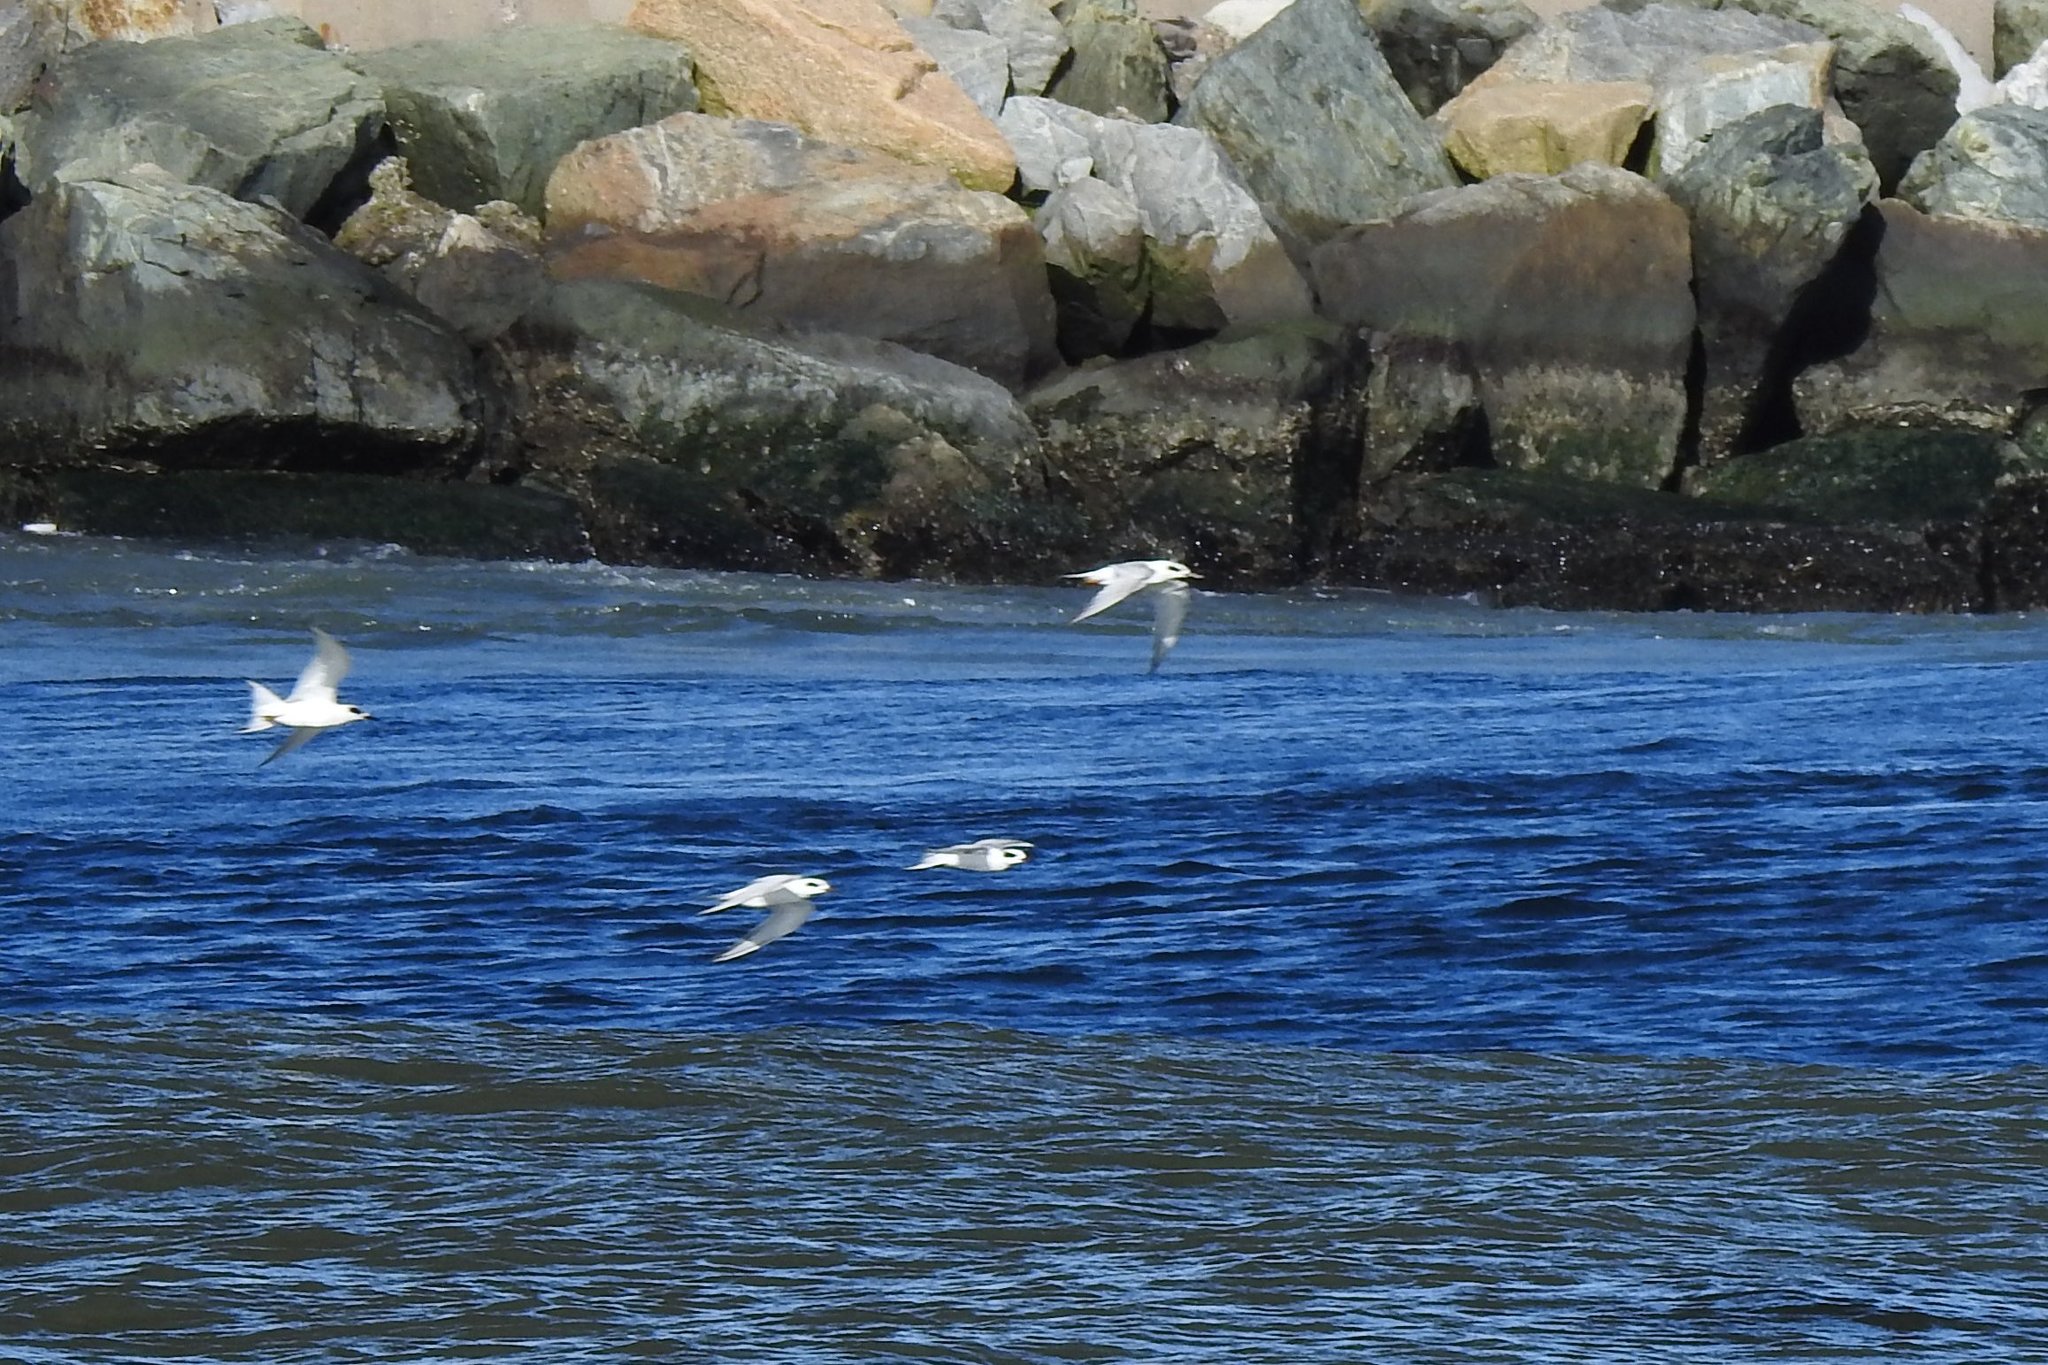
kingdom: Animalia
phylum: Chordata
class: Aves
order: Charadriiformes
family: Laridae
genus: Sterna
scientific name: Sterna forsteri
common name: Forster's tern
